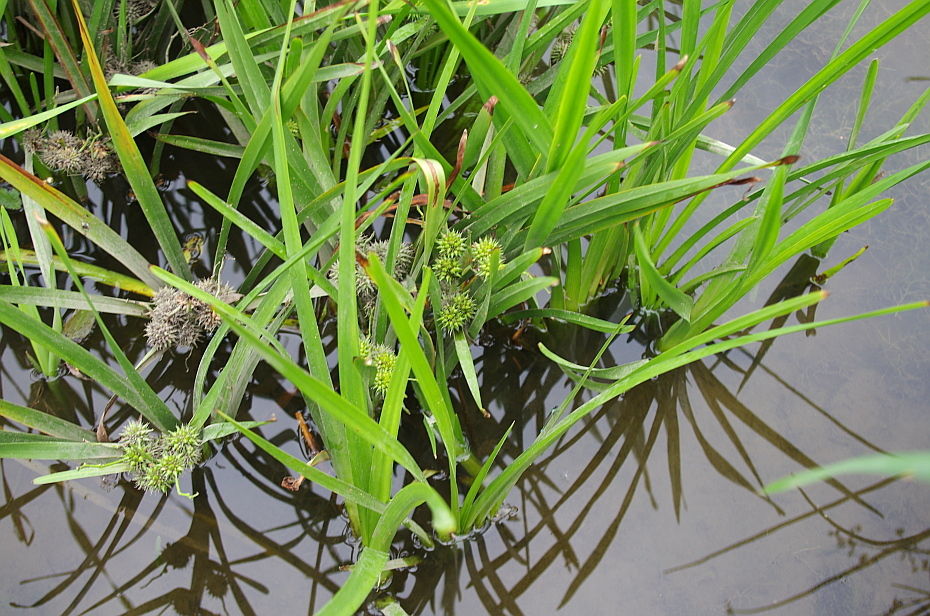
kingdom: Plantae
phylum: Tracheophyta
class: Liliopsida
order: Poales
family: Typhaceae
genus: Sparganium
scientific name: Sparganium erectum
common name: Branched bur-reed
